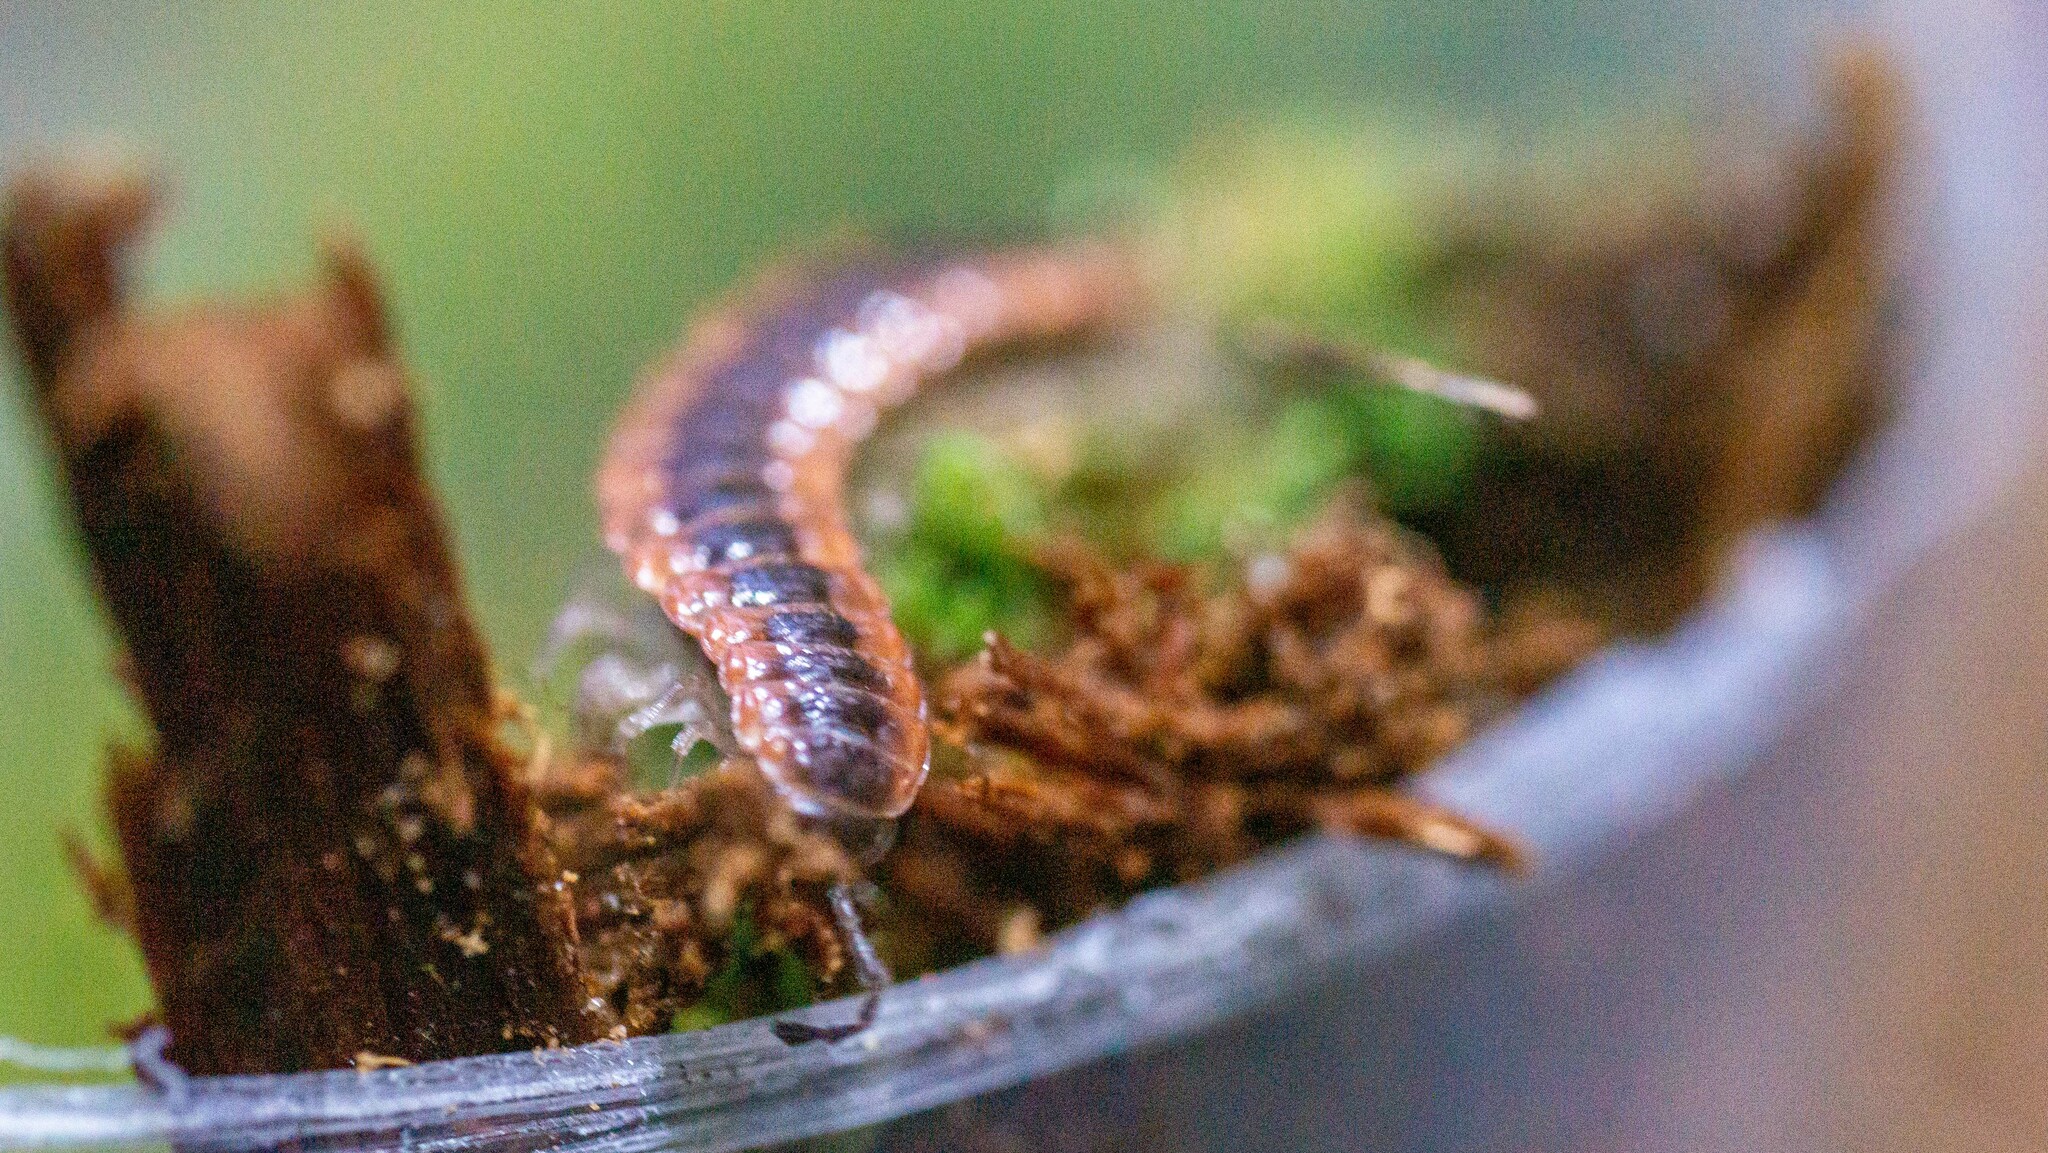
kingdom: Animalia
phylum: Arthropoda
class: Diplopoda
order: Polydesmida
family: Polydesmidae
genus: Pseudopolydesmus
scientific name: Pseudopolydesmus canadensis
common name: Canadian flat-back millipede
